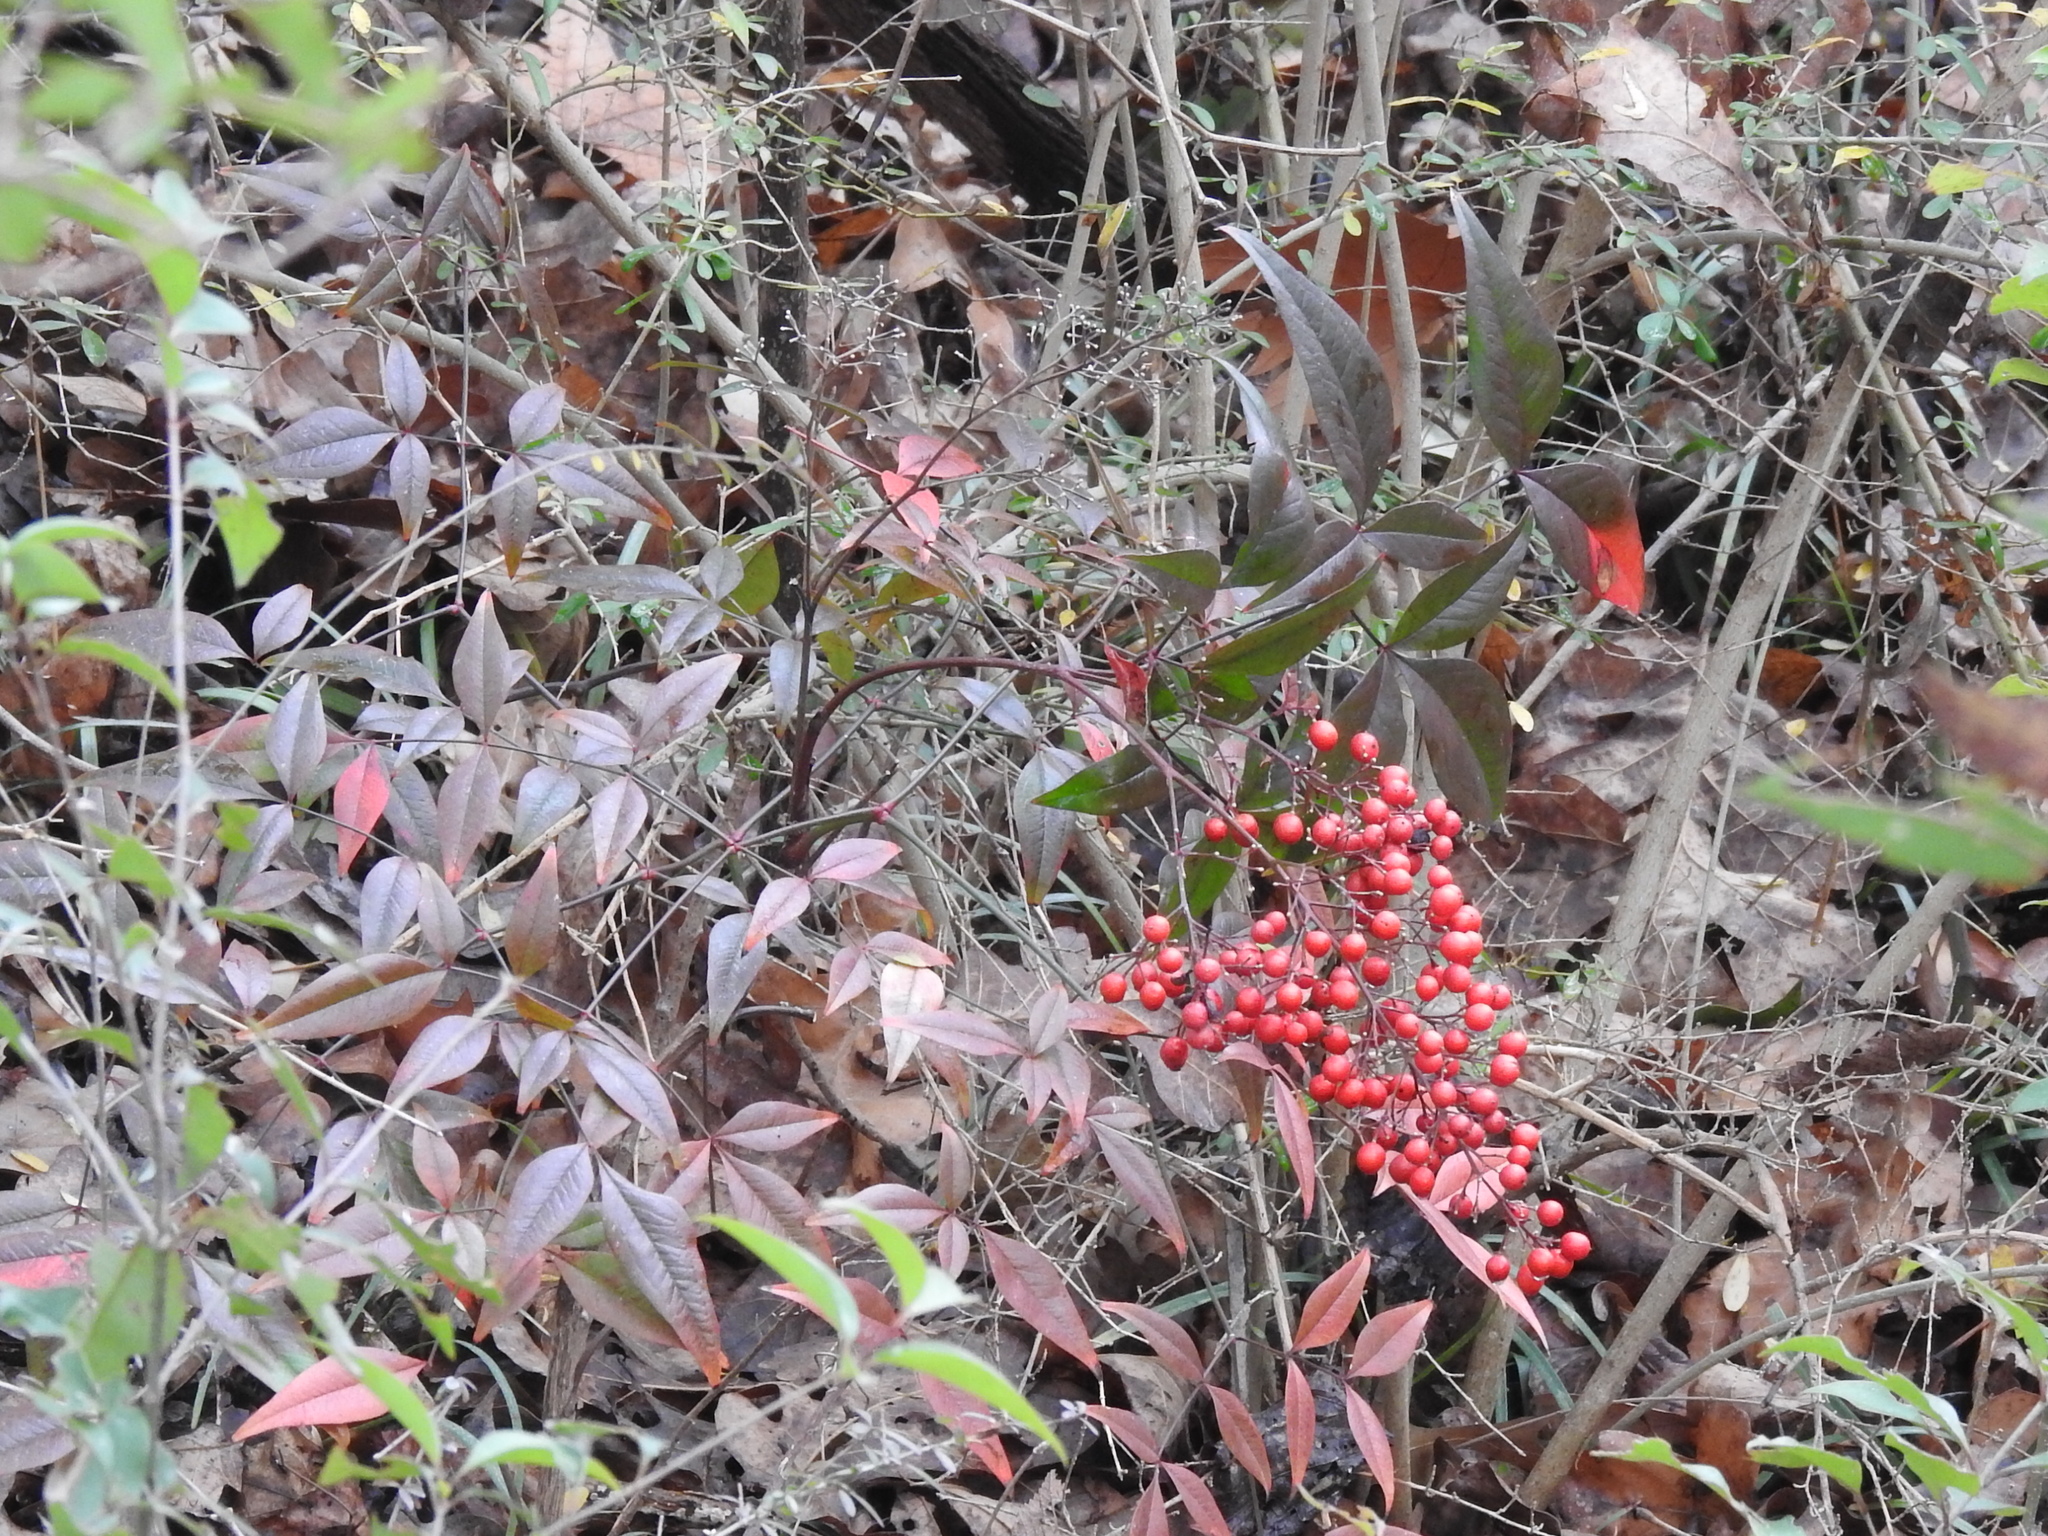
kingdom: Plantae
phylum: Tracheophyta
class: Magnoliopsida
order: Ranunculales
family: Berberidaceae
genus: Nandina
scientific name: Nandina domestica
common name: Sacred bamboo
